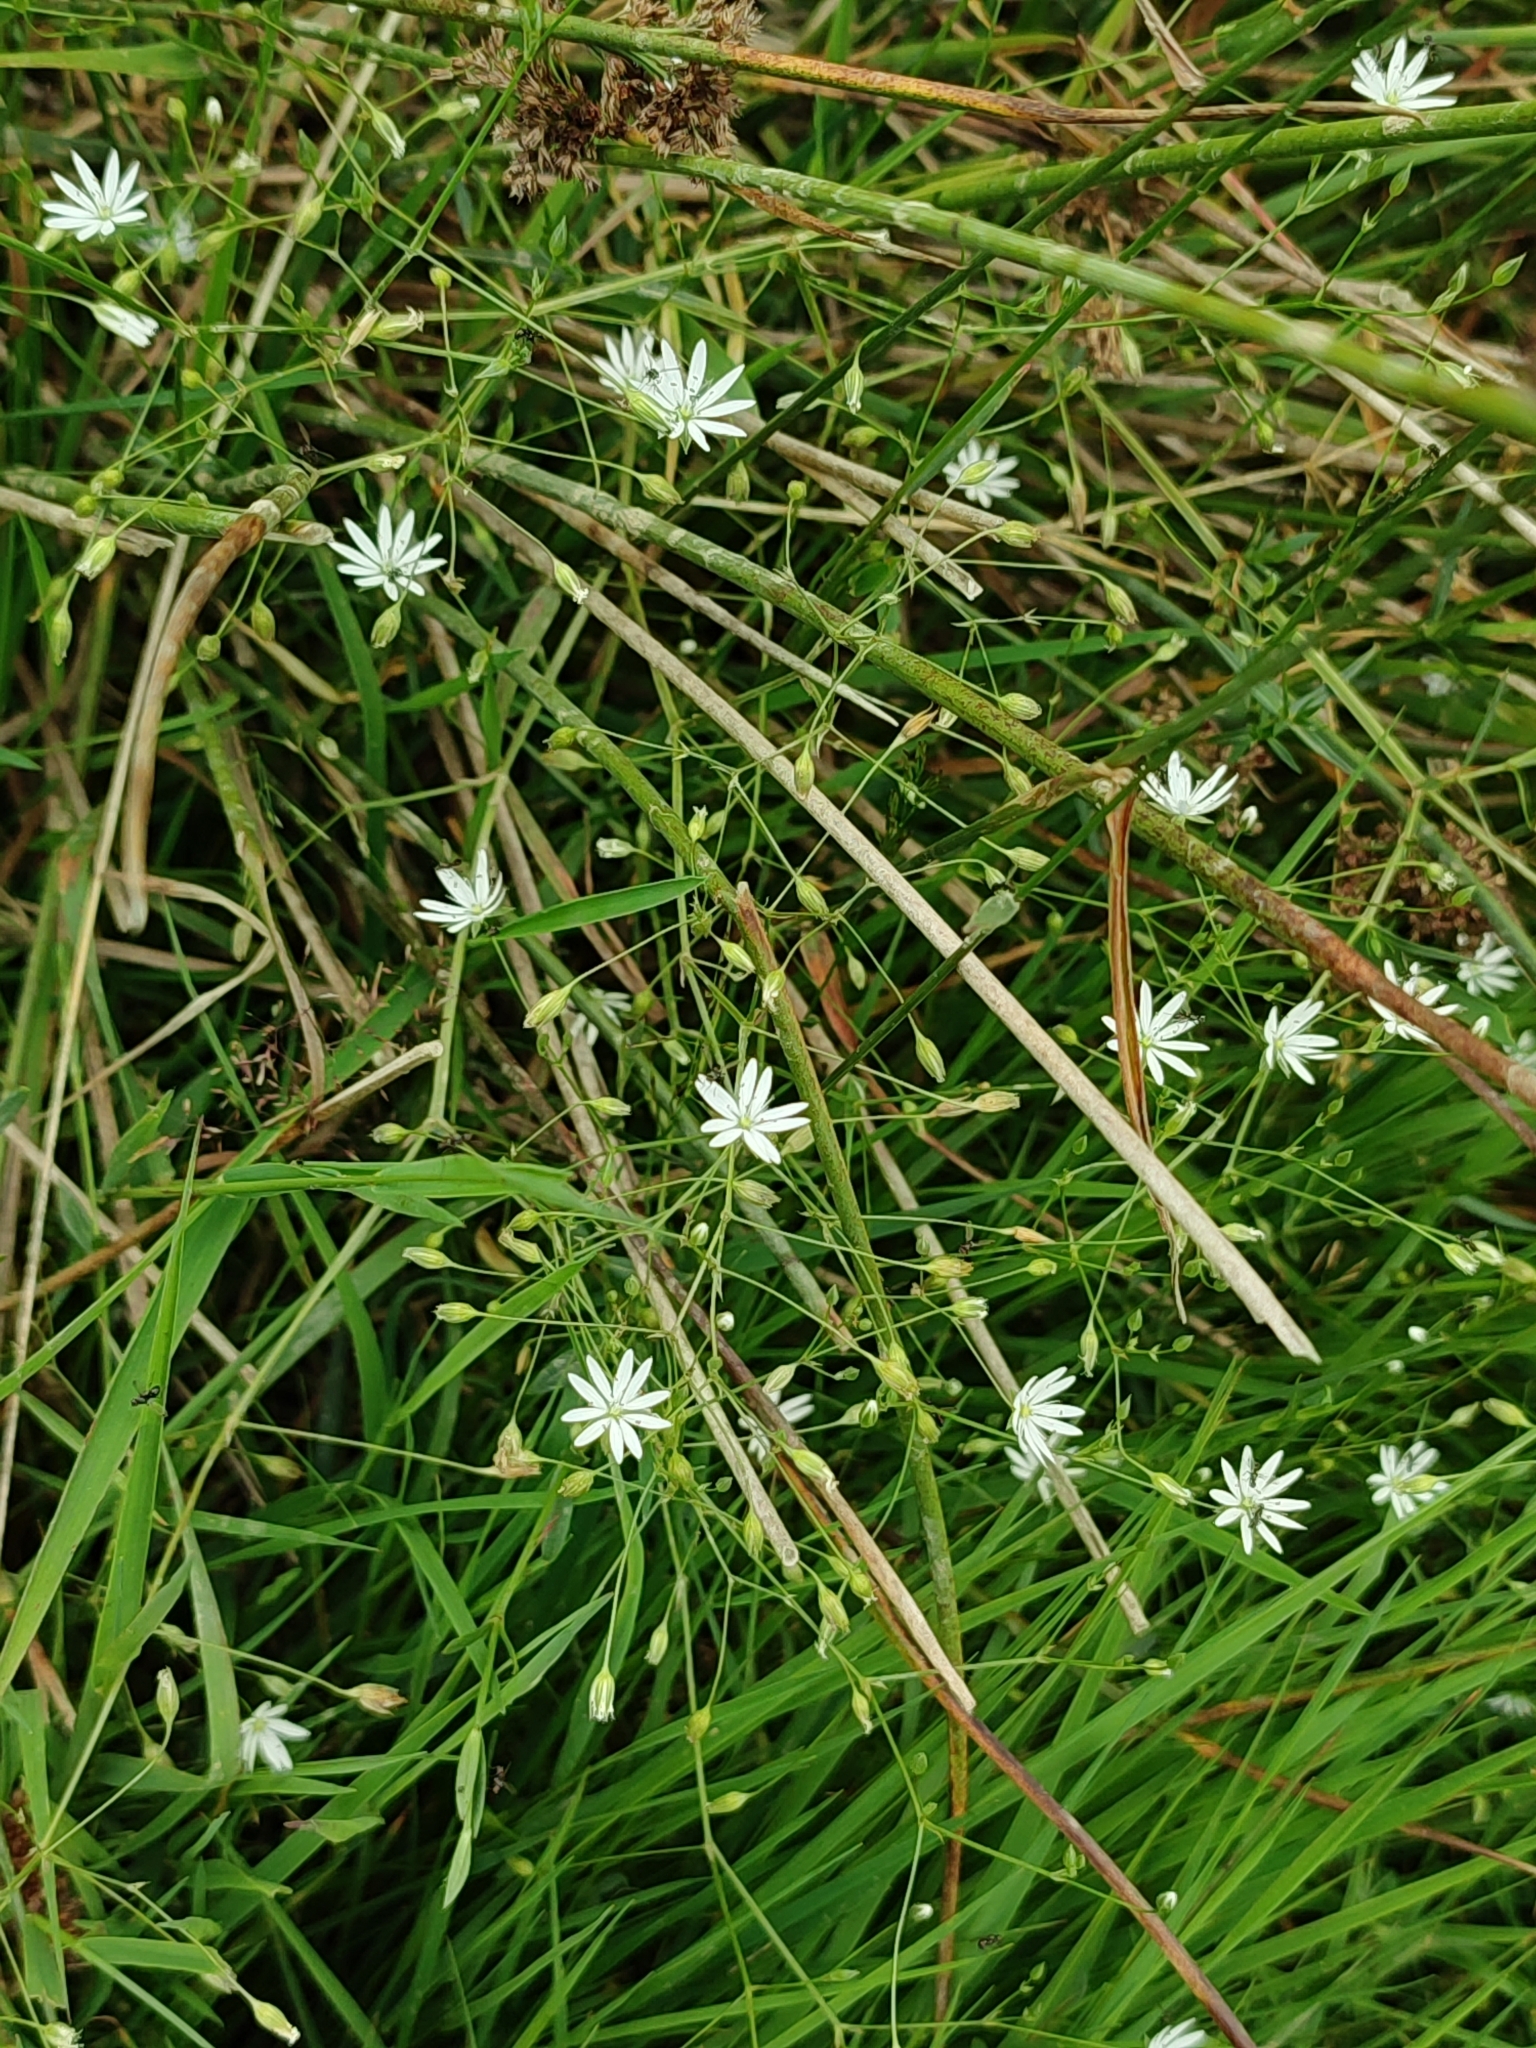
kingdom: Plantae
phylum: Tracheophyta
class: Magnoliopsida
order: Caryophyllales
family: Caryophyllaceae
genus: Stellaria
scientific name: Stellaria graminea
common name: Grass-like starwort
